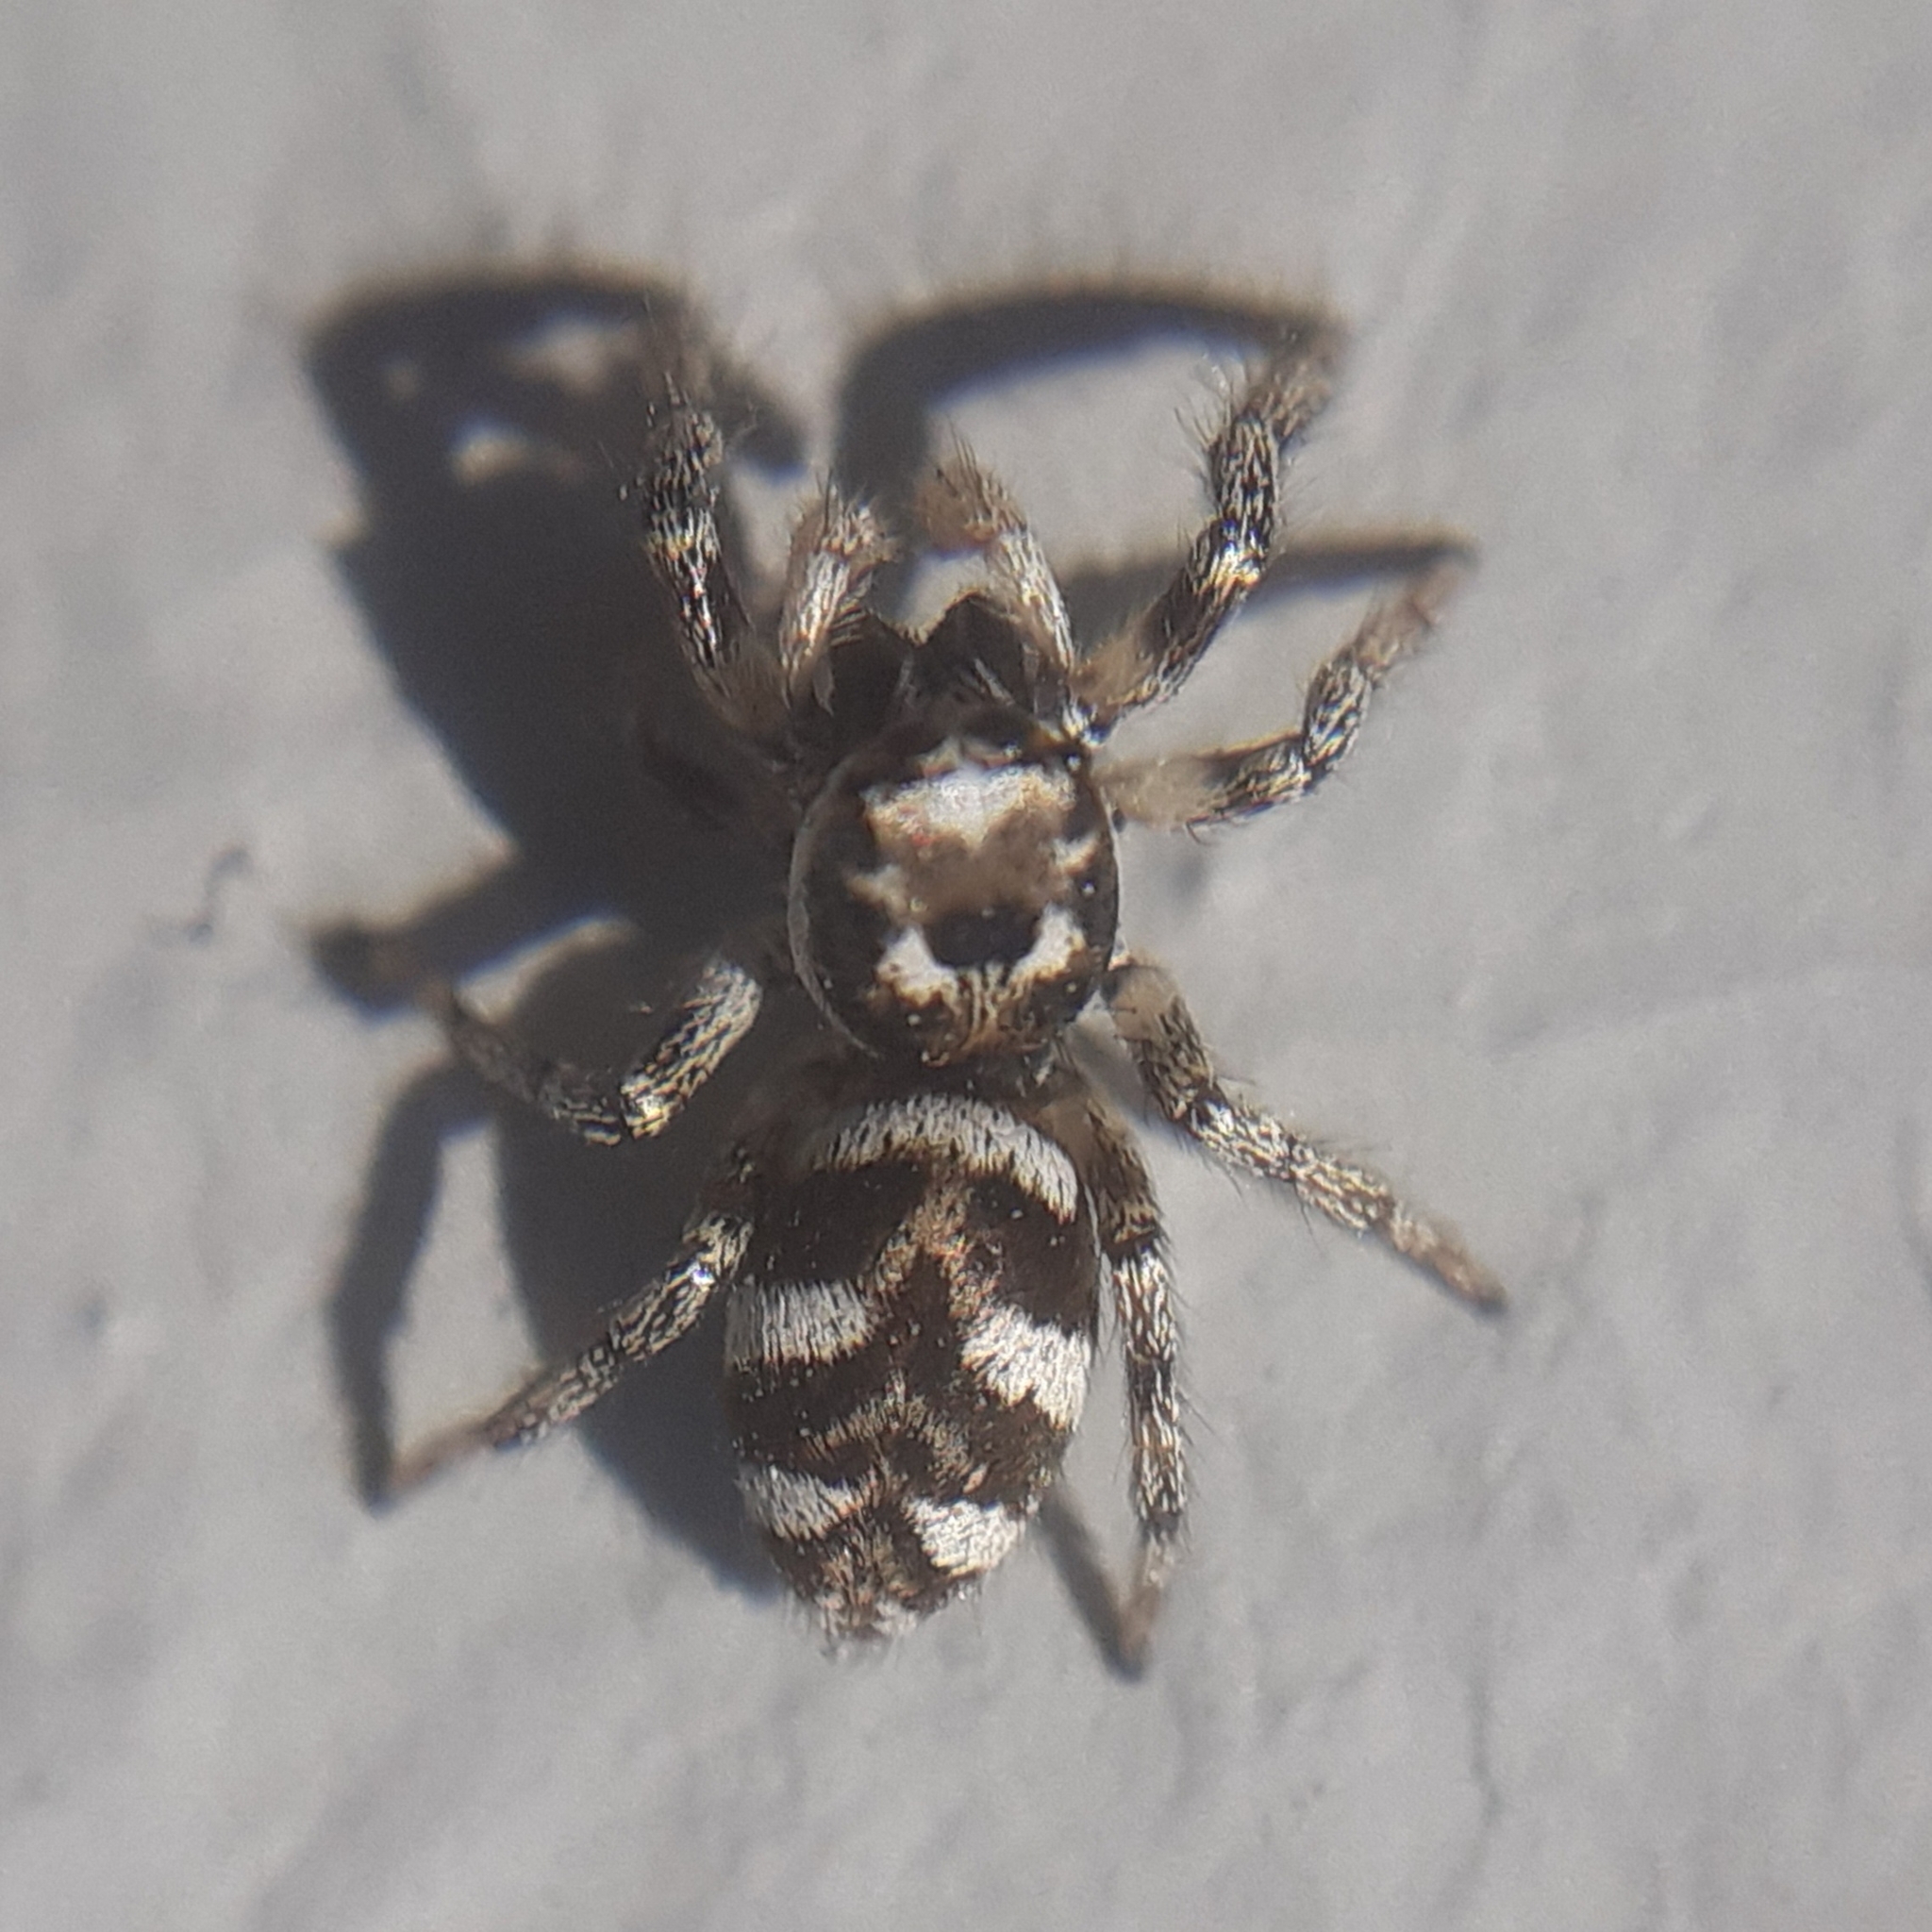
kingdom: Animalia
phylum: Arthropoda
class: Arachnida
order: Araneae
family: Salticidae
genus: Salticus
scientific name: Salticus scenicus
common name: Zebra jumper
